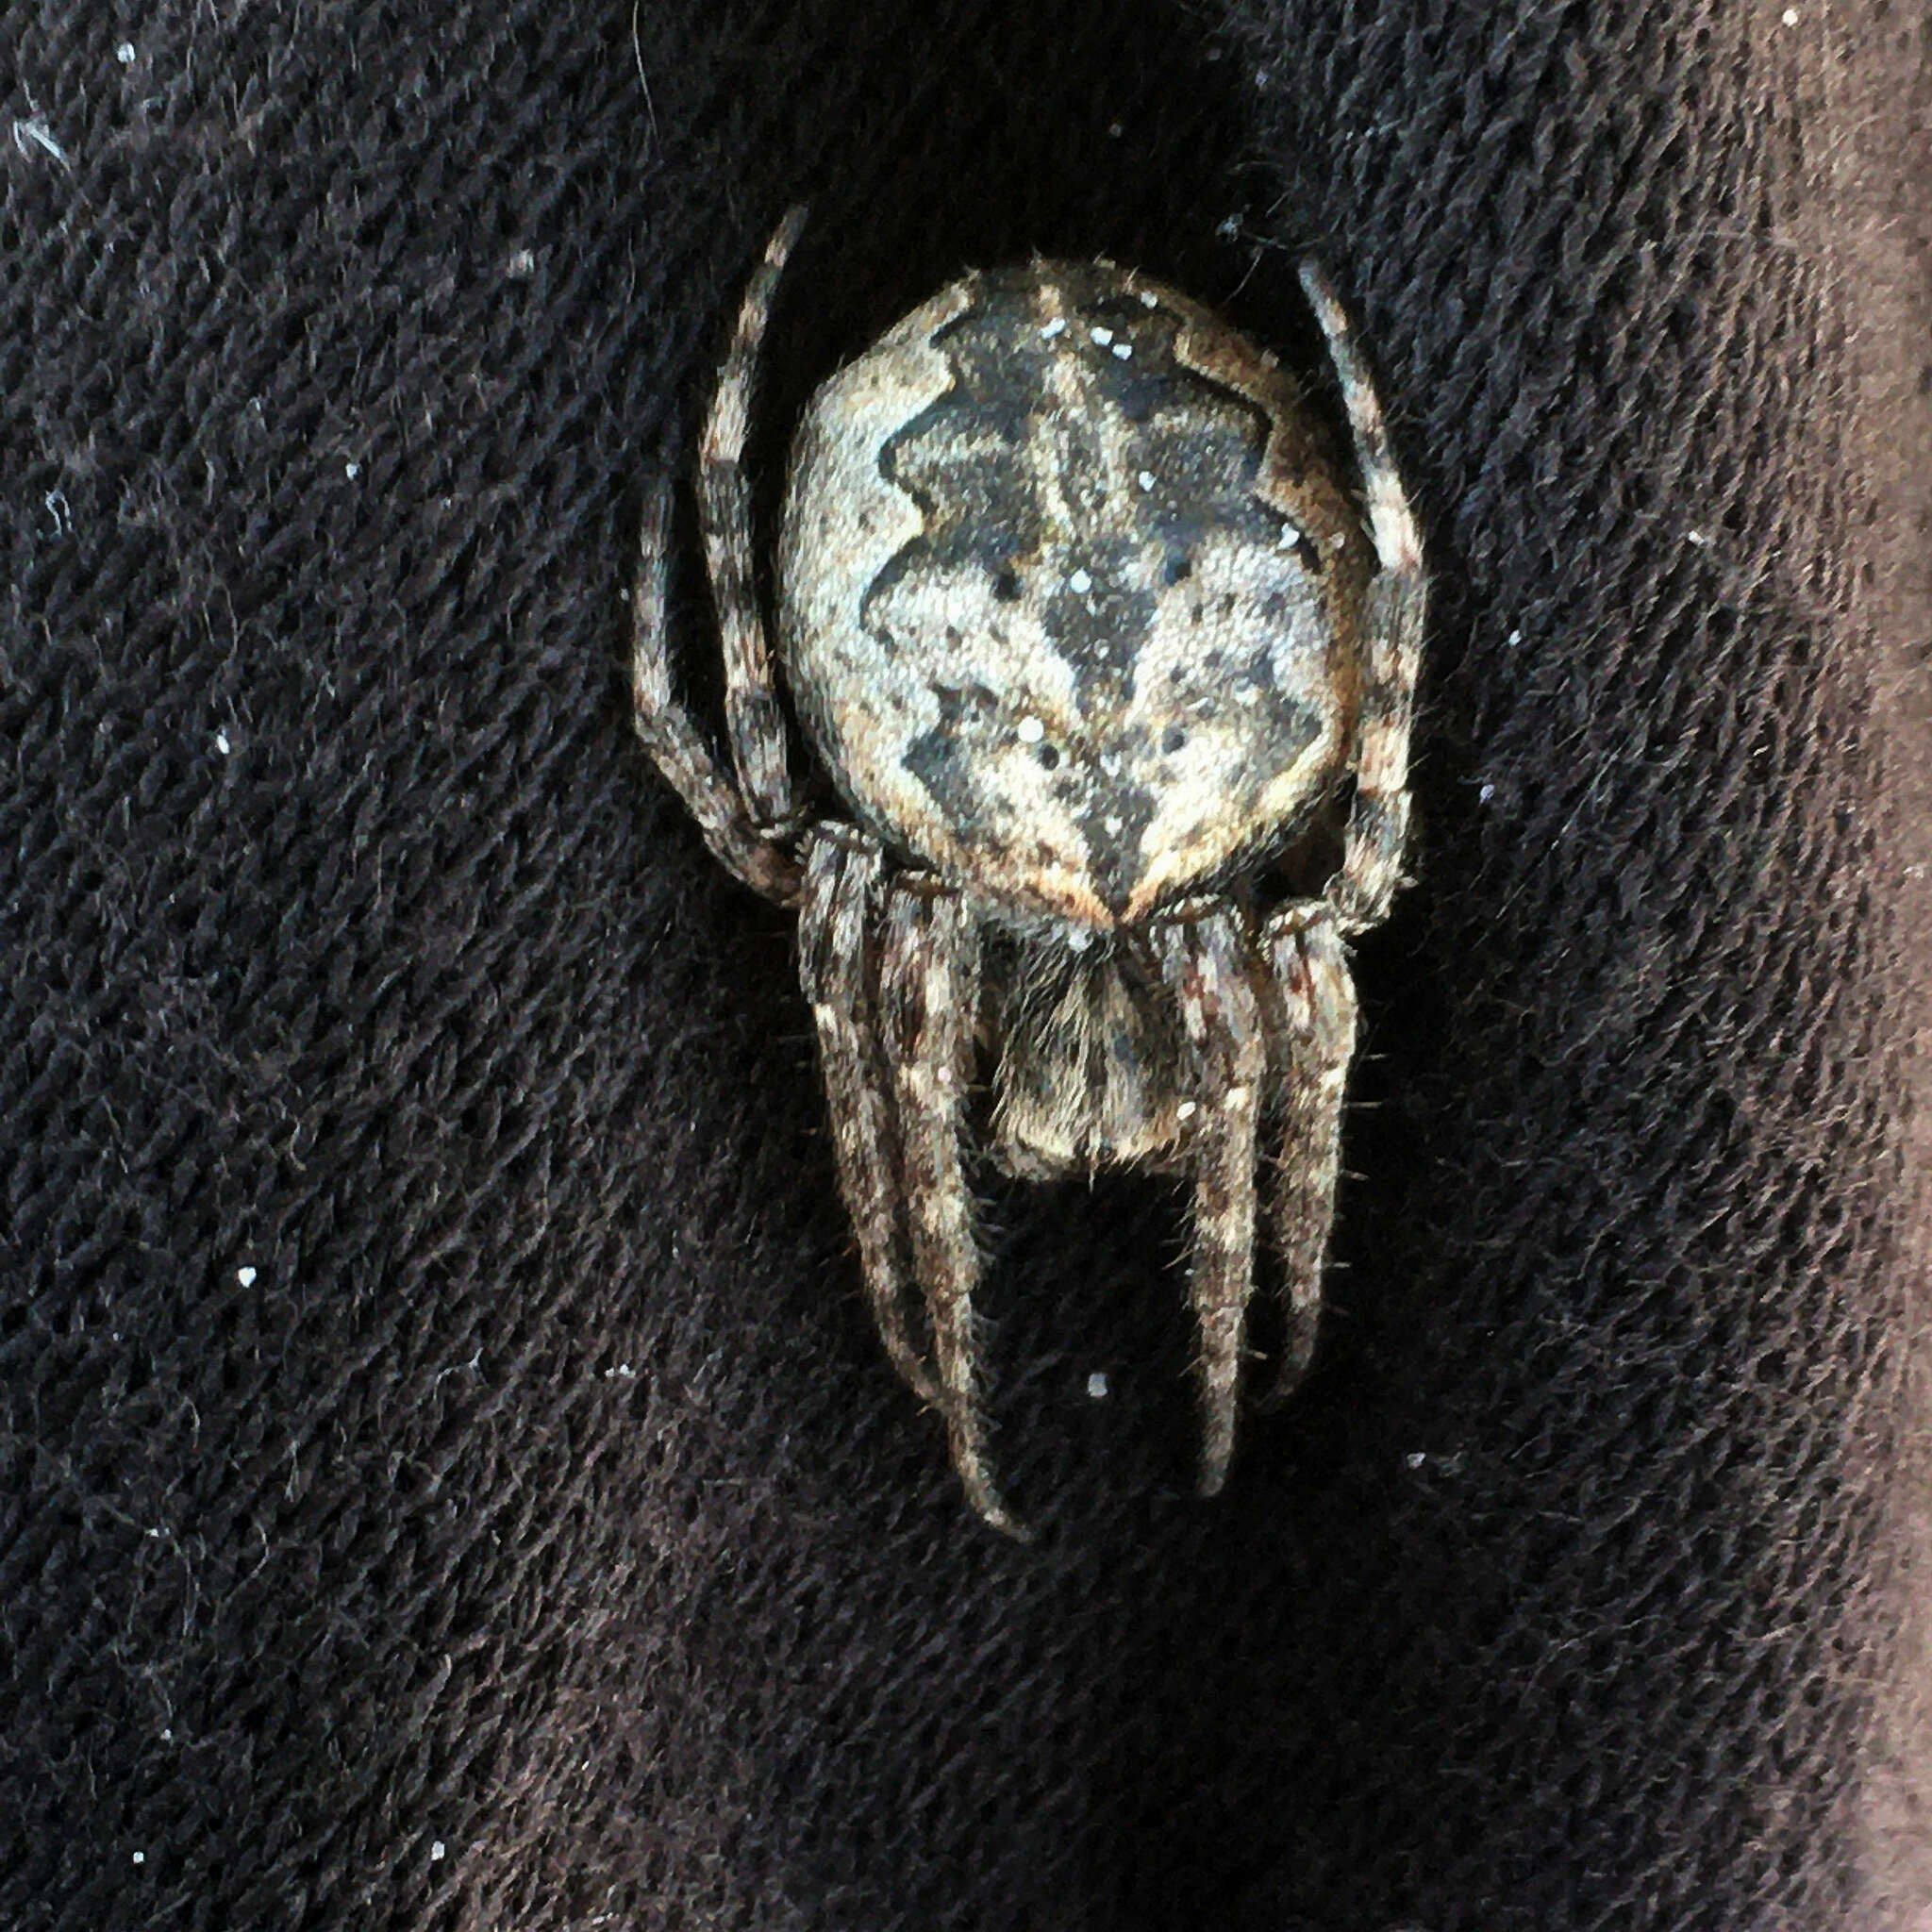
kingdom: Animalia
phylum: Arthropoda
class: Arachnida
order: Araneae
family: Araneidae
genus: Larinioides
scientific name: Larinioides ixobolus
